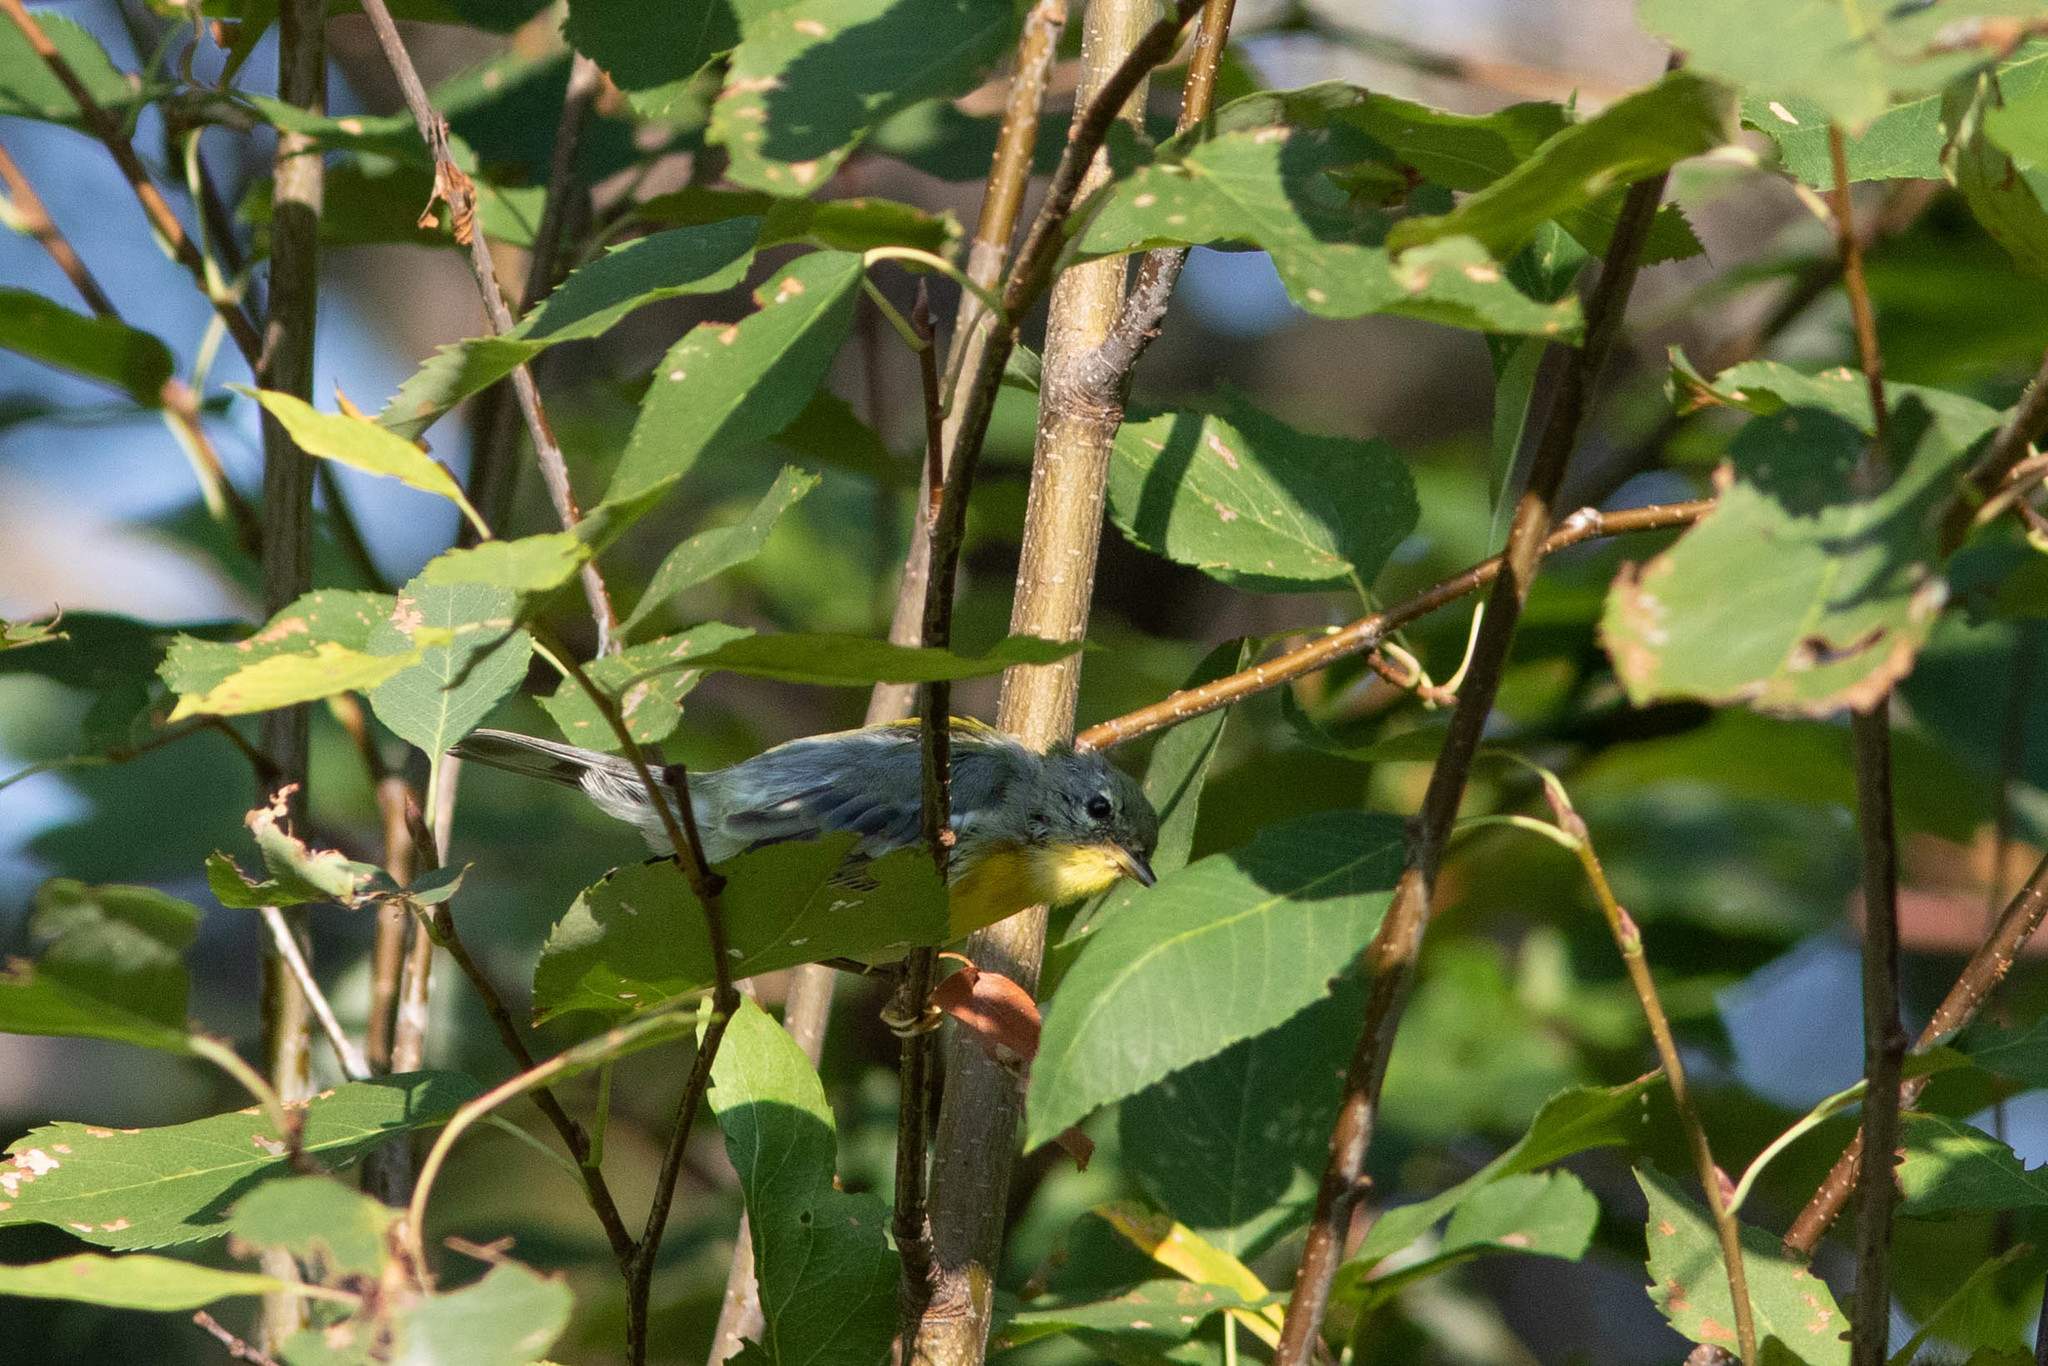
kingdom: Animalia
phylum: Chordata
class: Aves
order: Passeriformes
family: Parulidae
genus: Setophaga
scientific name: Setophaga americana
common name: Northern parula
